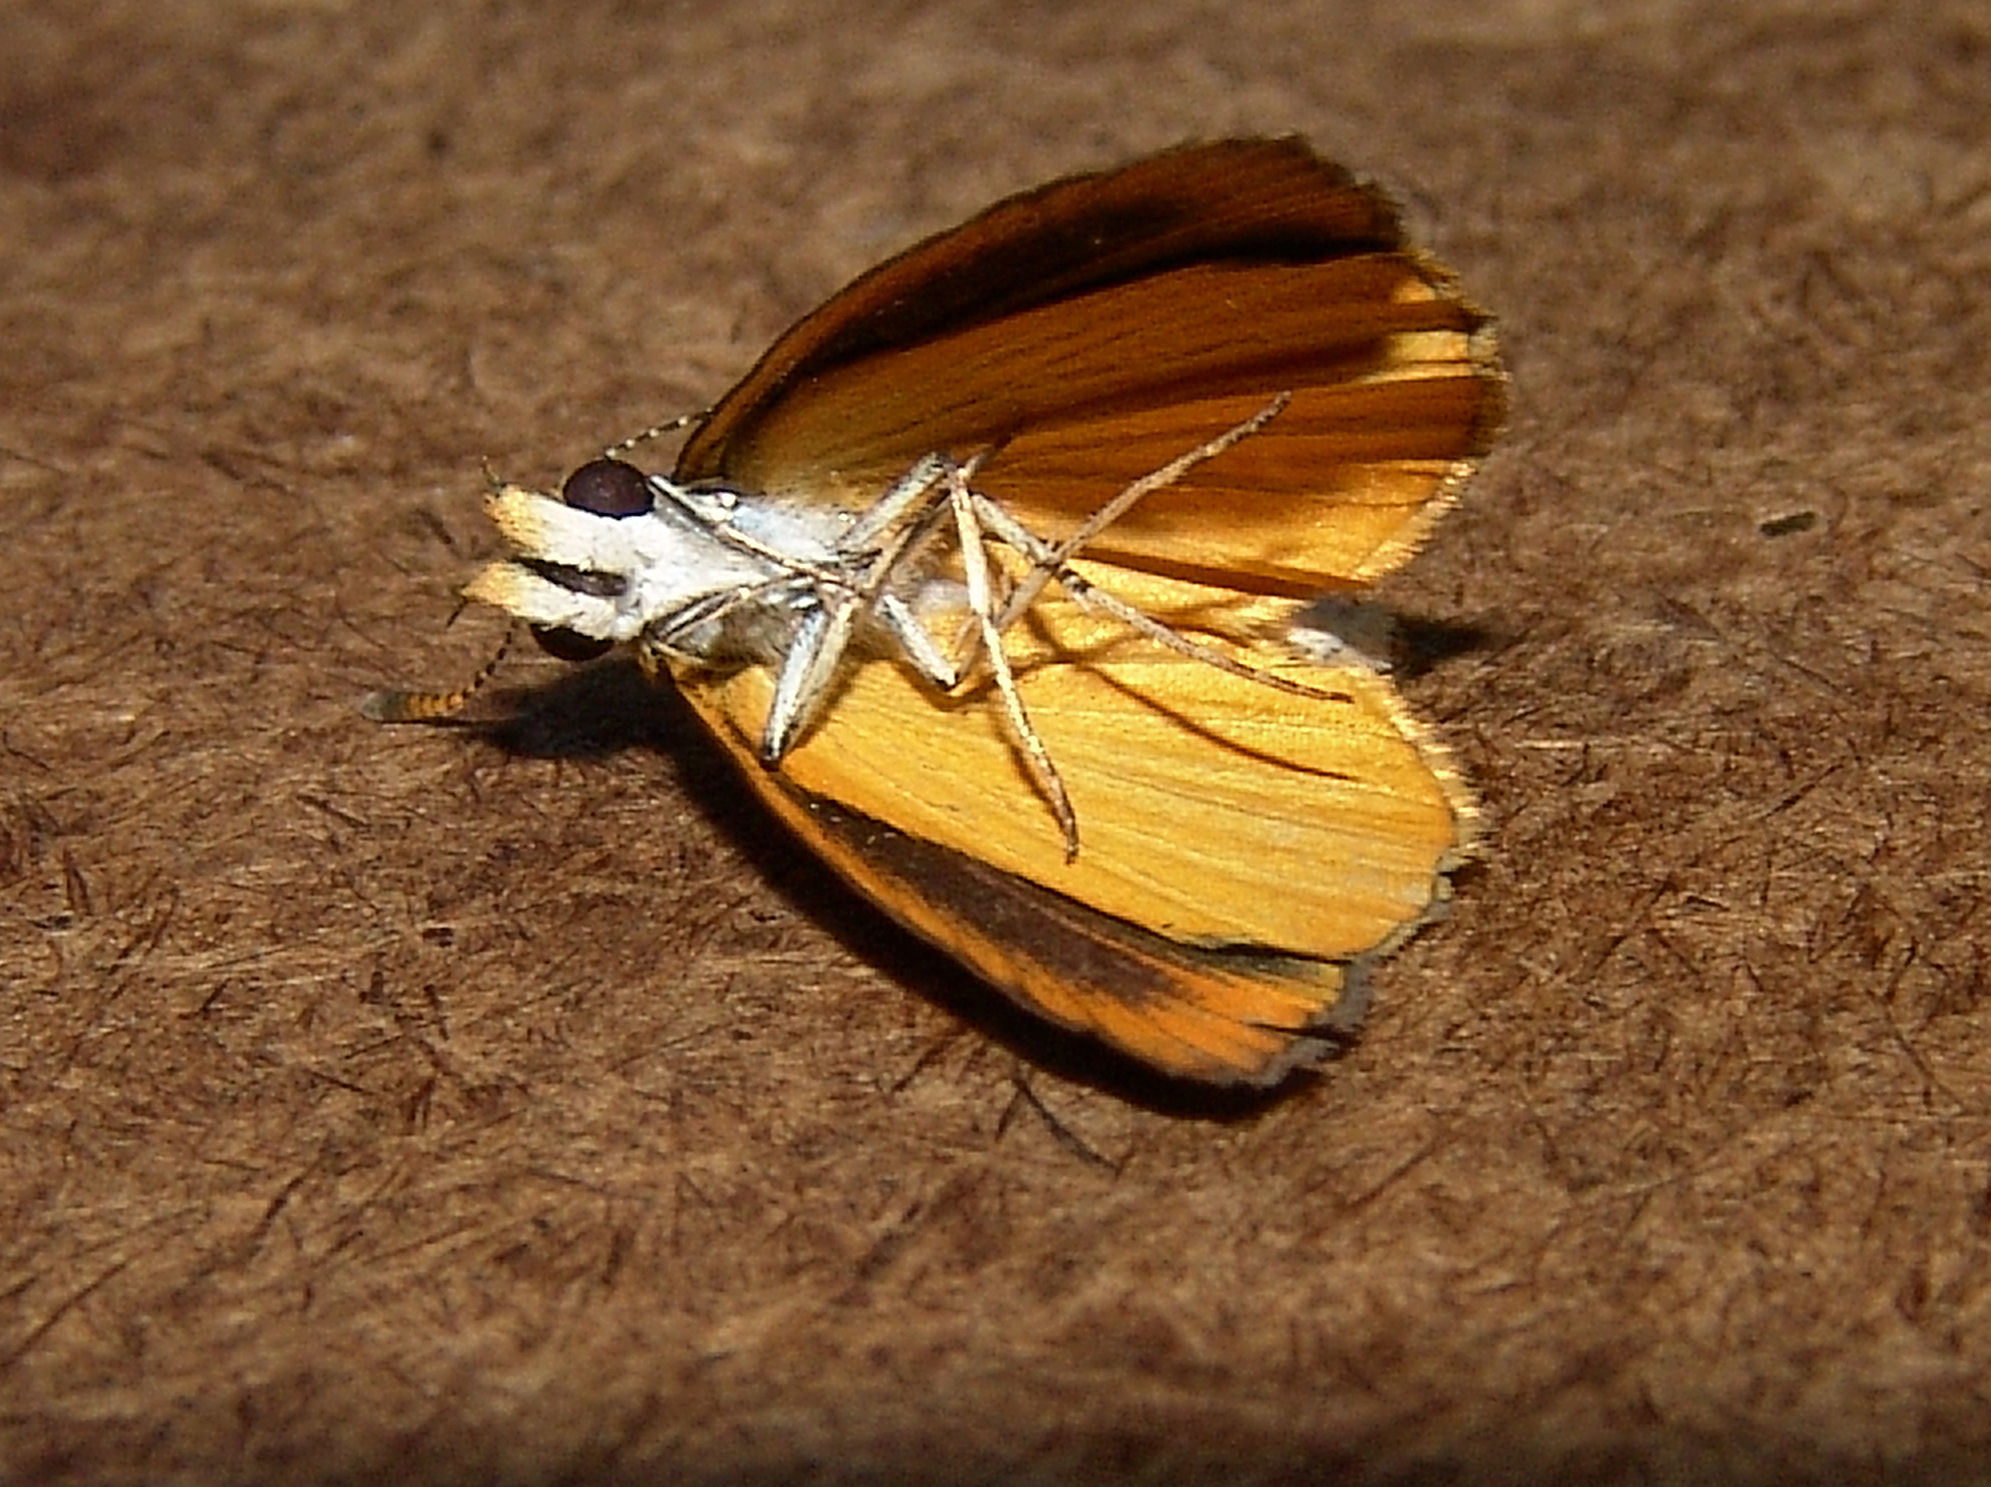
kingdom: Animalia
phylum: Arthropoda
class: Insecta
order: Lepidoptera
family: Hesperiidae
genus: Ancyloxypha
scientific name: Ancyloxypha numitor
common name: Least skipper
